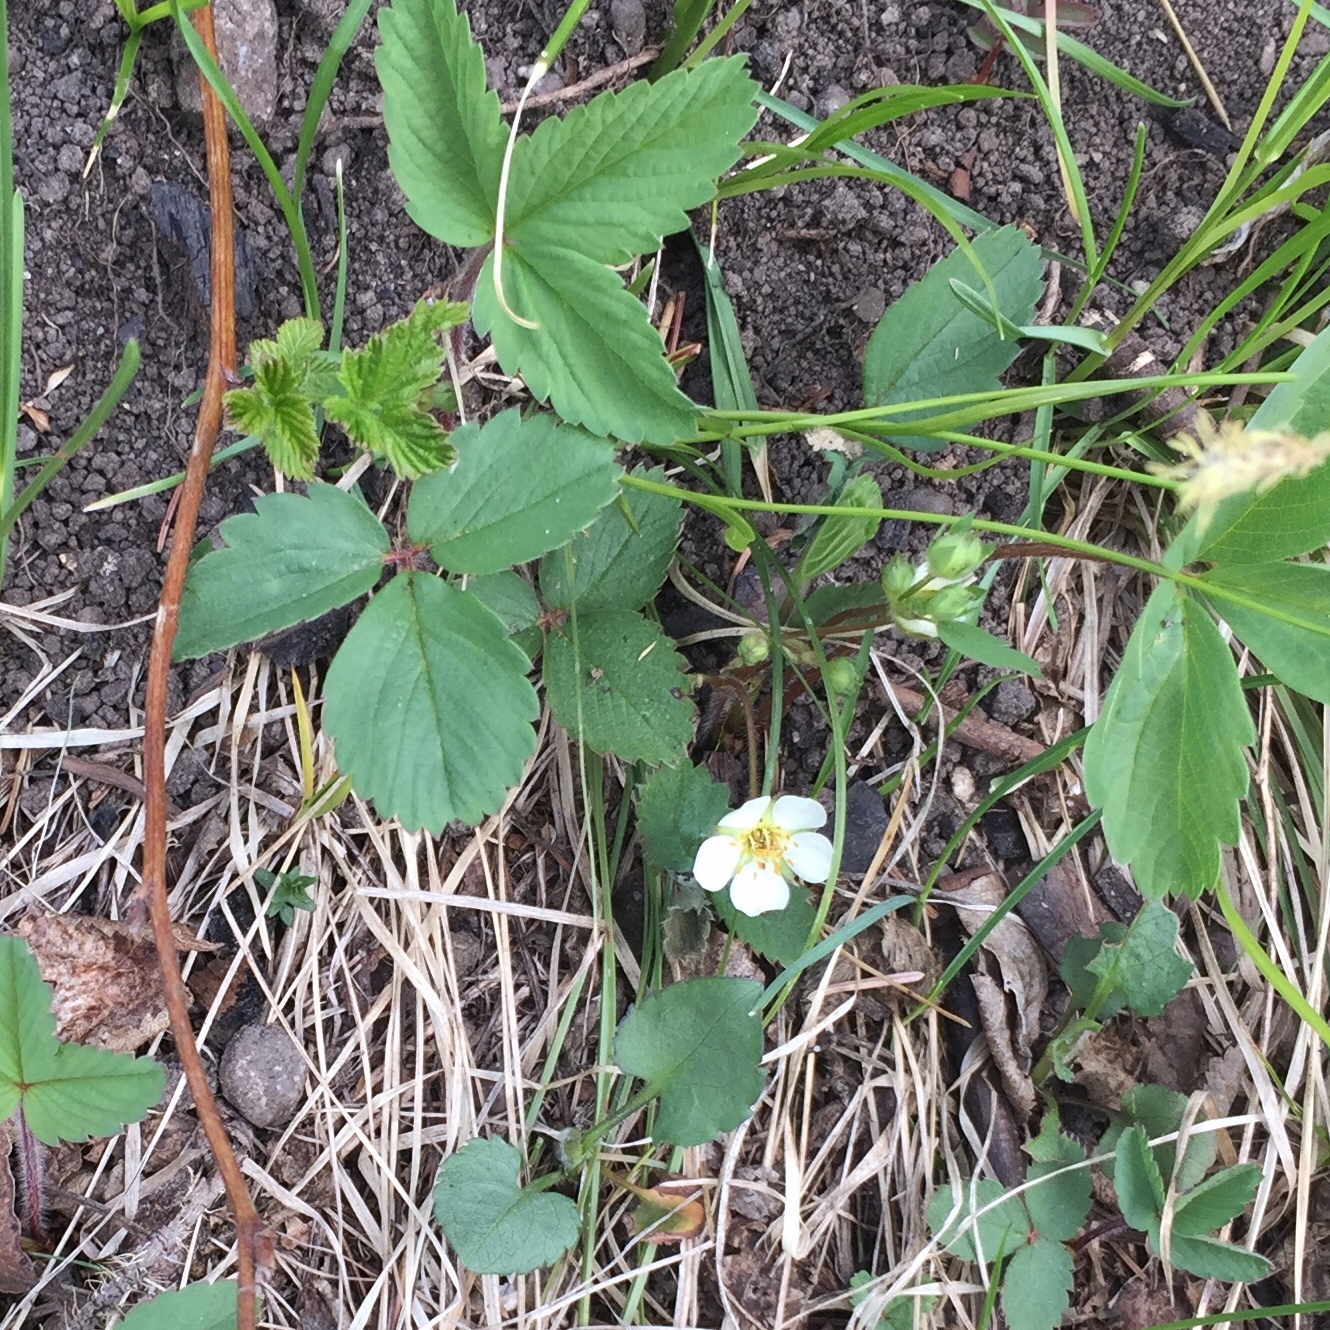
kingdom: Plantae
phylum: Tracheophyta
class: Magnoliopsida
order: Rosales
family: Rosaceae
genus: Fragaria
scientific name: Fragaria virginiana
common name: Thickleaved wild strawberry
